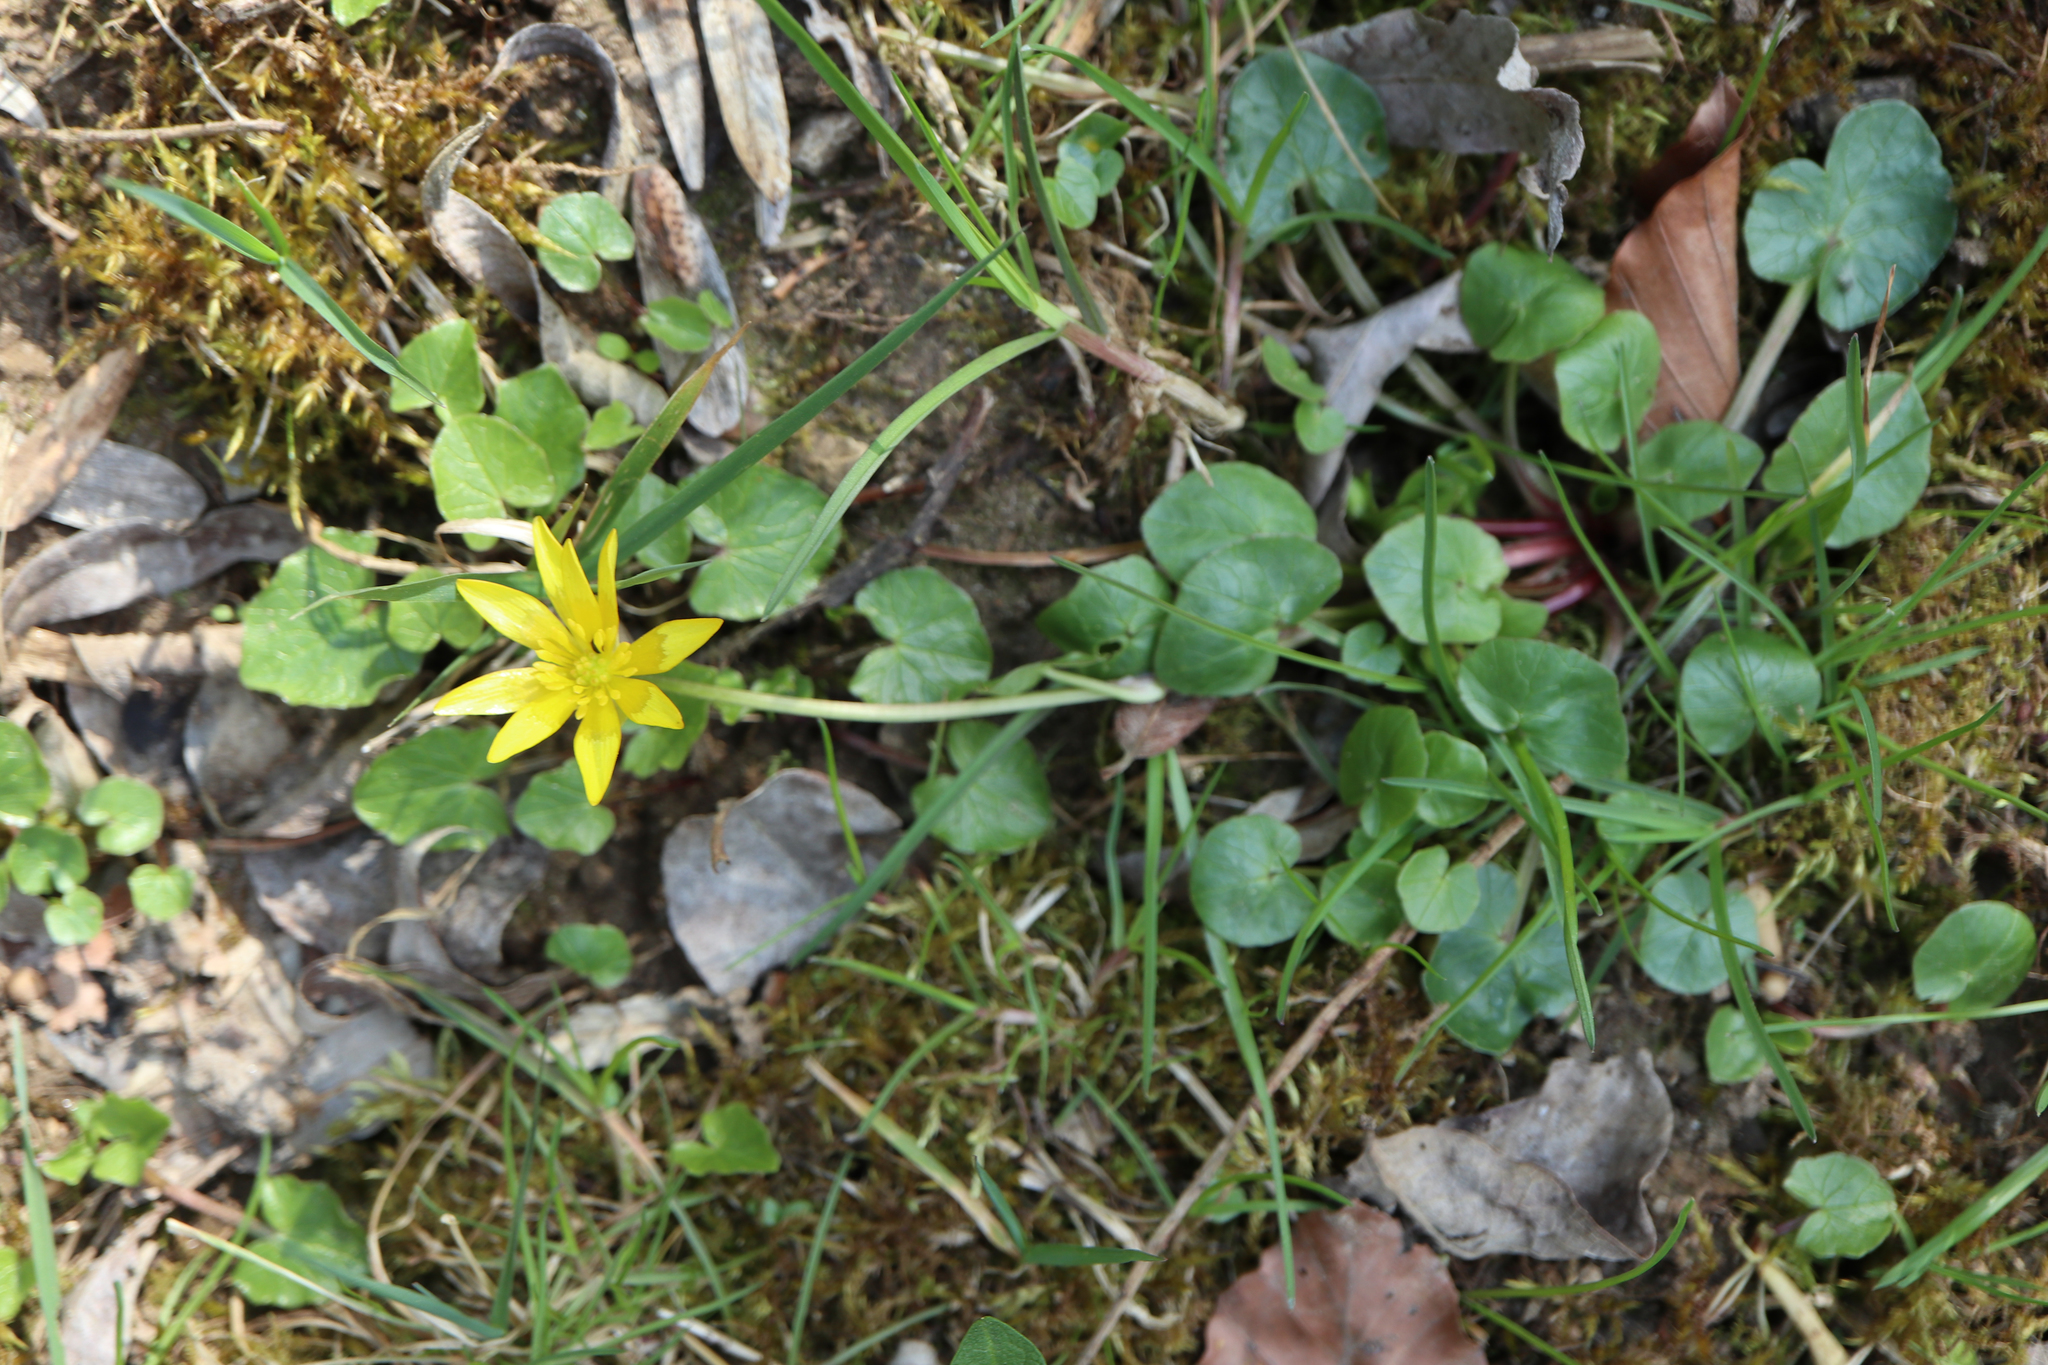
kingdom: Plantae
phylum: Tracheophyta
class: Magnoliopsida
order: Ranunculales
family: Ranunculaceae
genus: Ficaria
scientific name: Ficaria verna
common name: Lesser celandine
